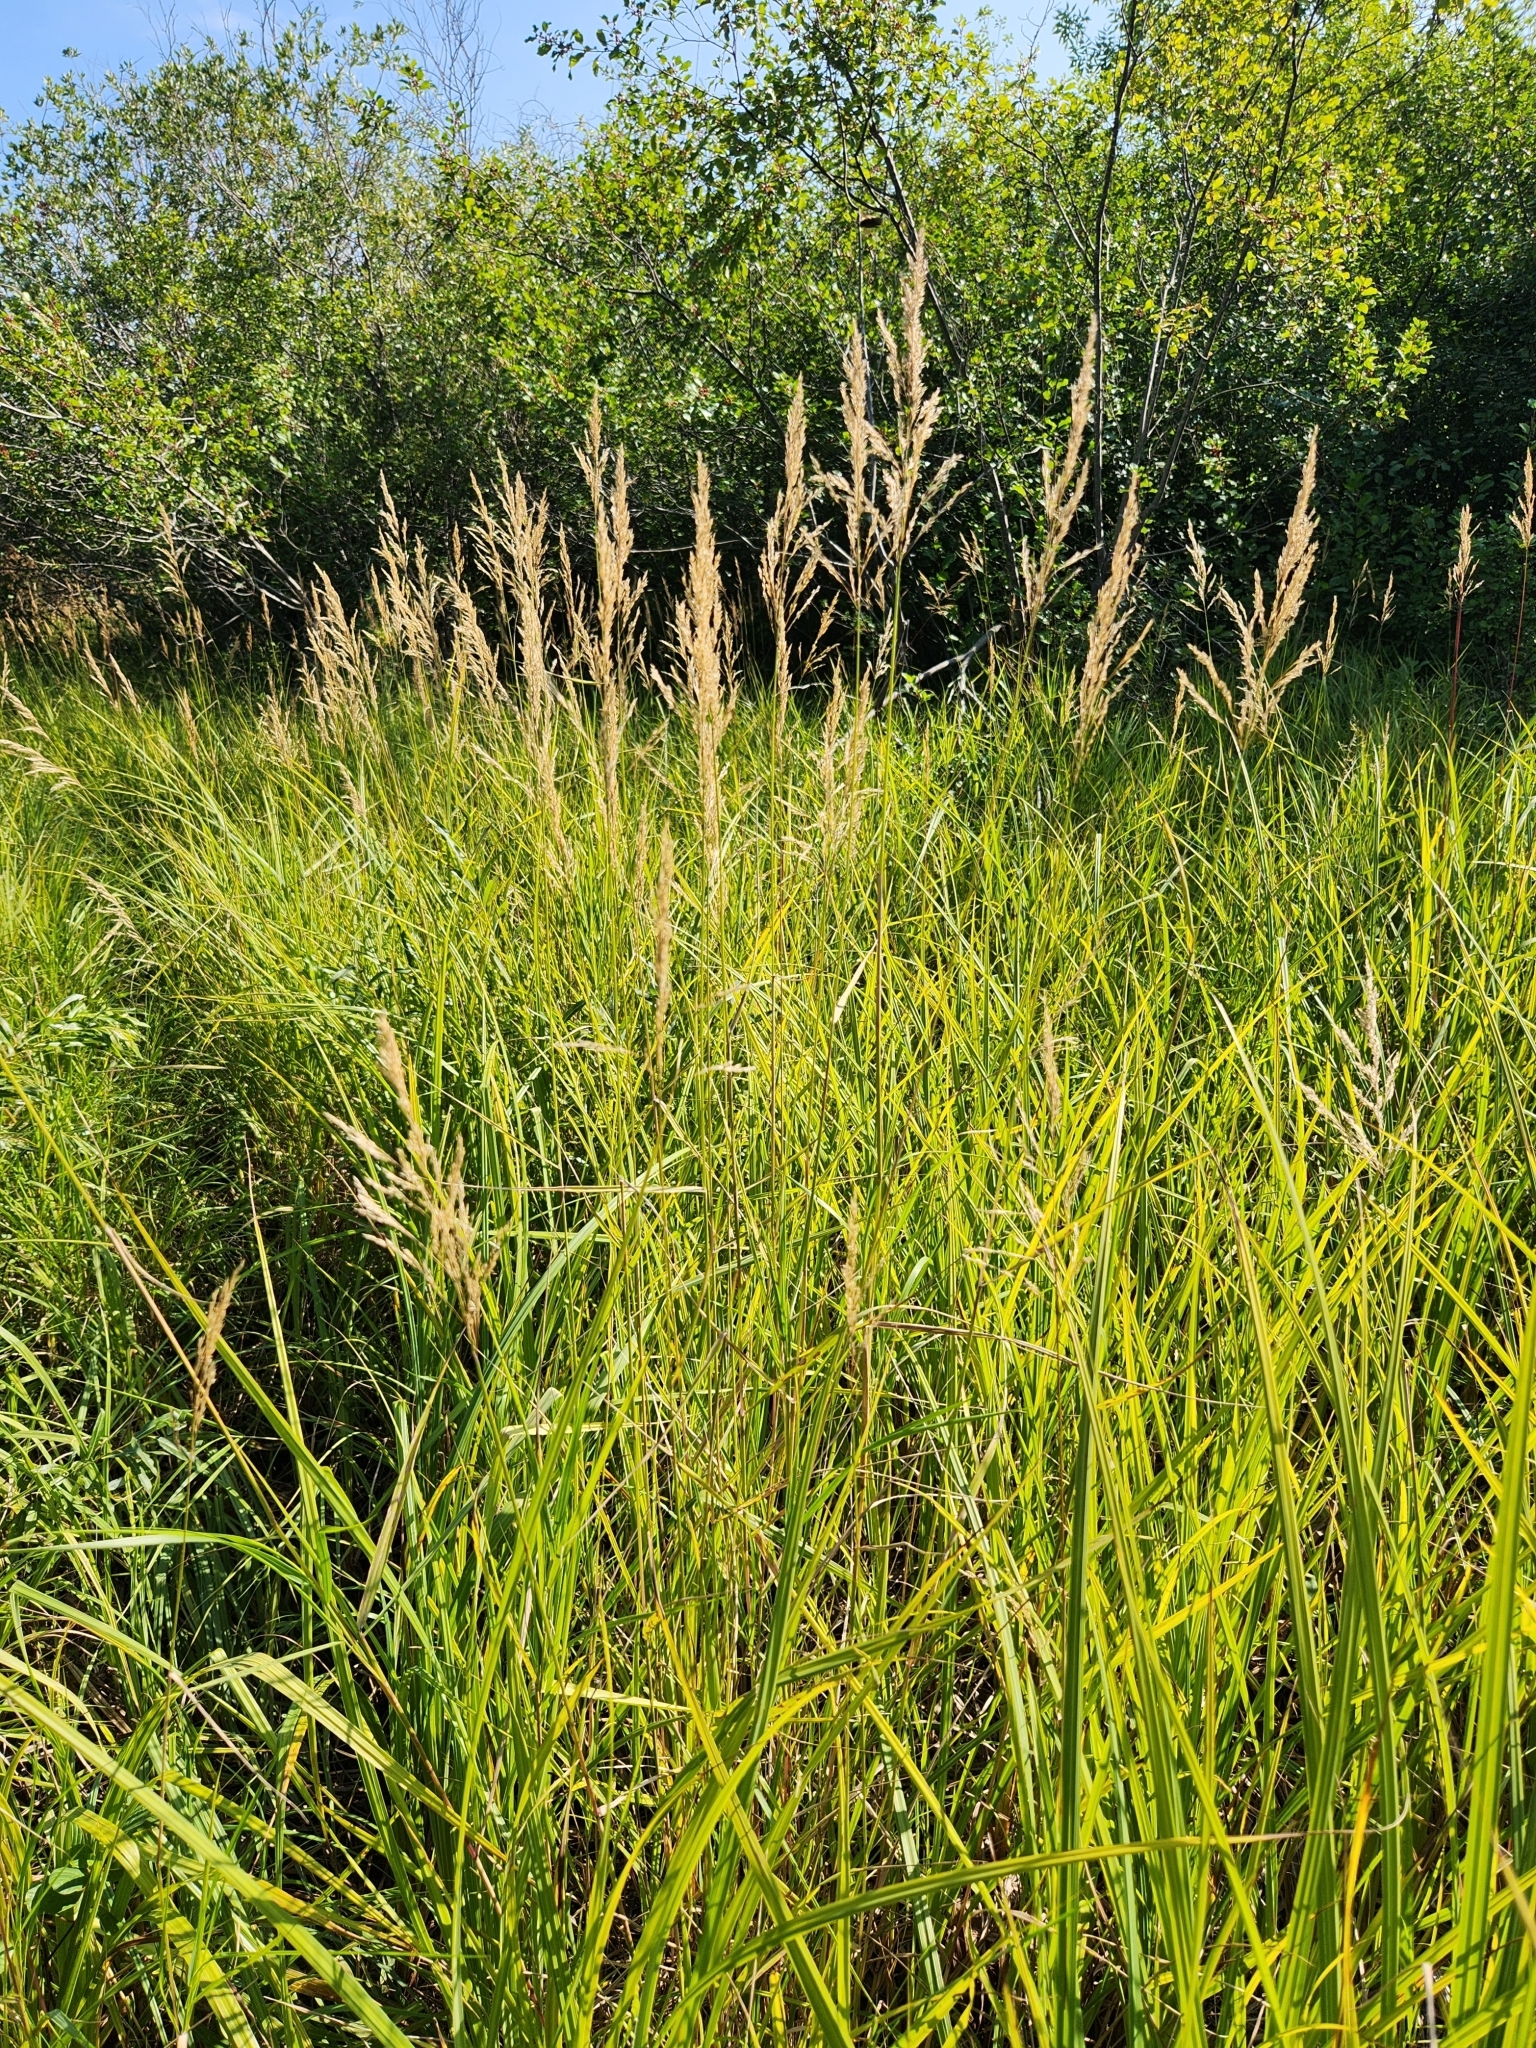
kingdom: Plantae
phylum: Tracheophyta
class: Liliopsida
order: Poales
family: Poaceae
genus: Calamagrostis
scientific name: Calamagrostis canadensis
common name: Canada bluejoint
